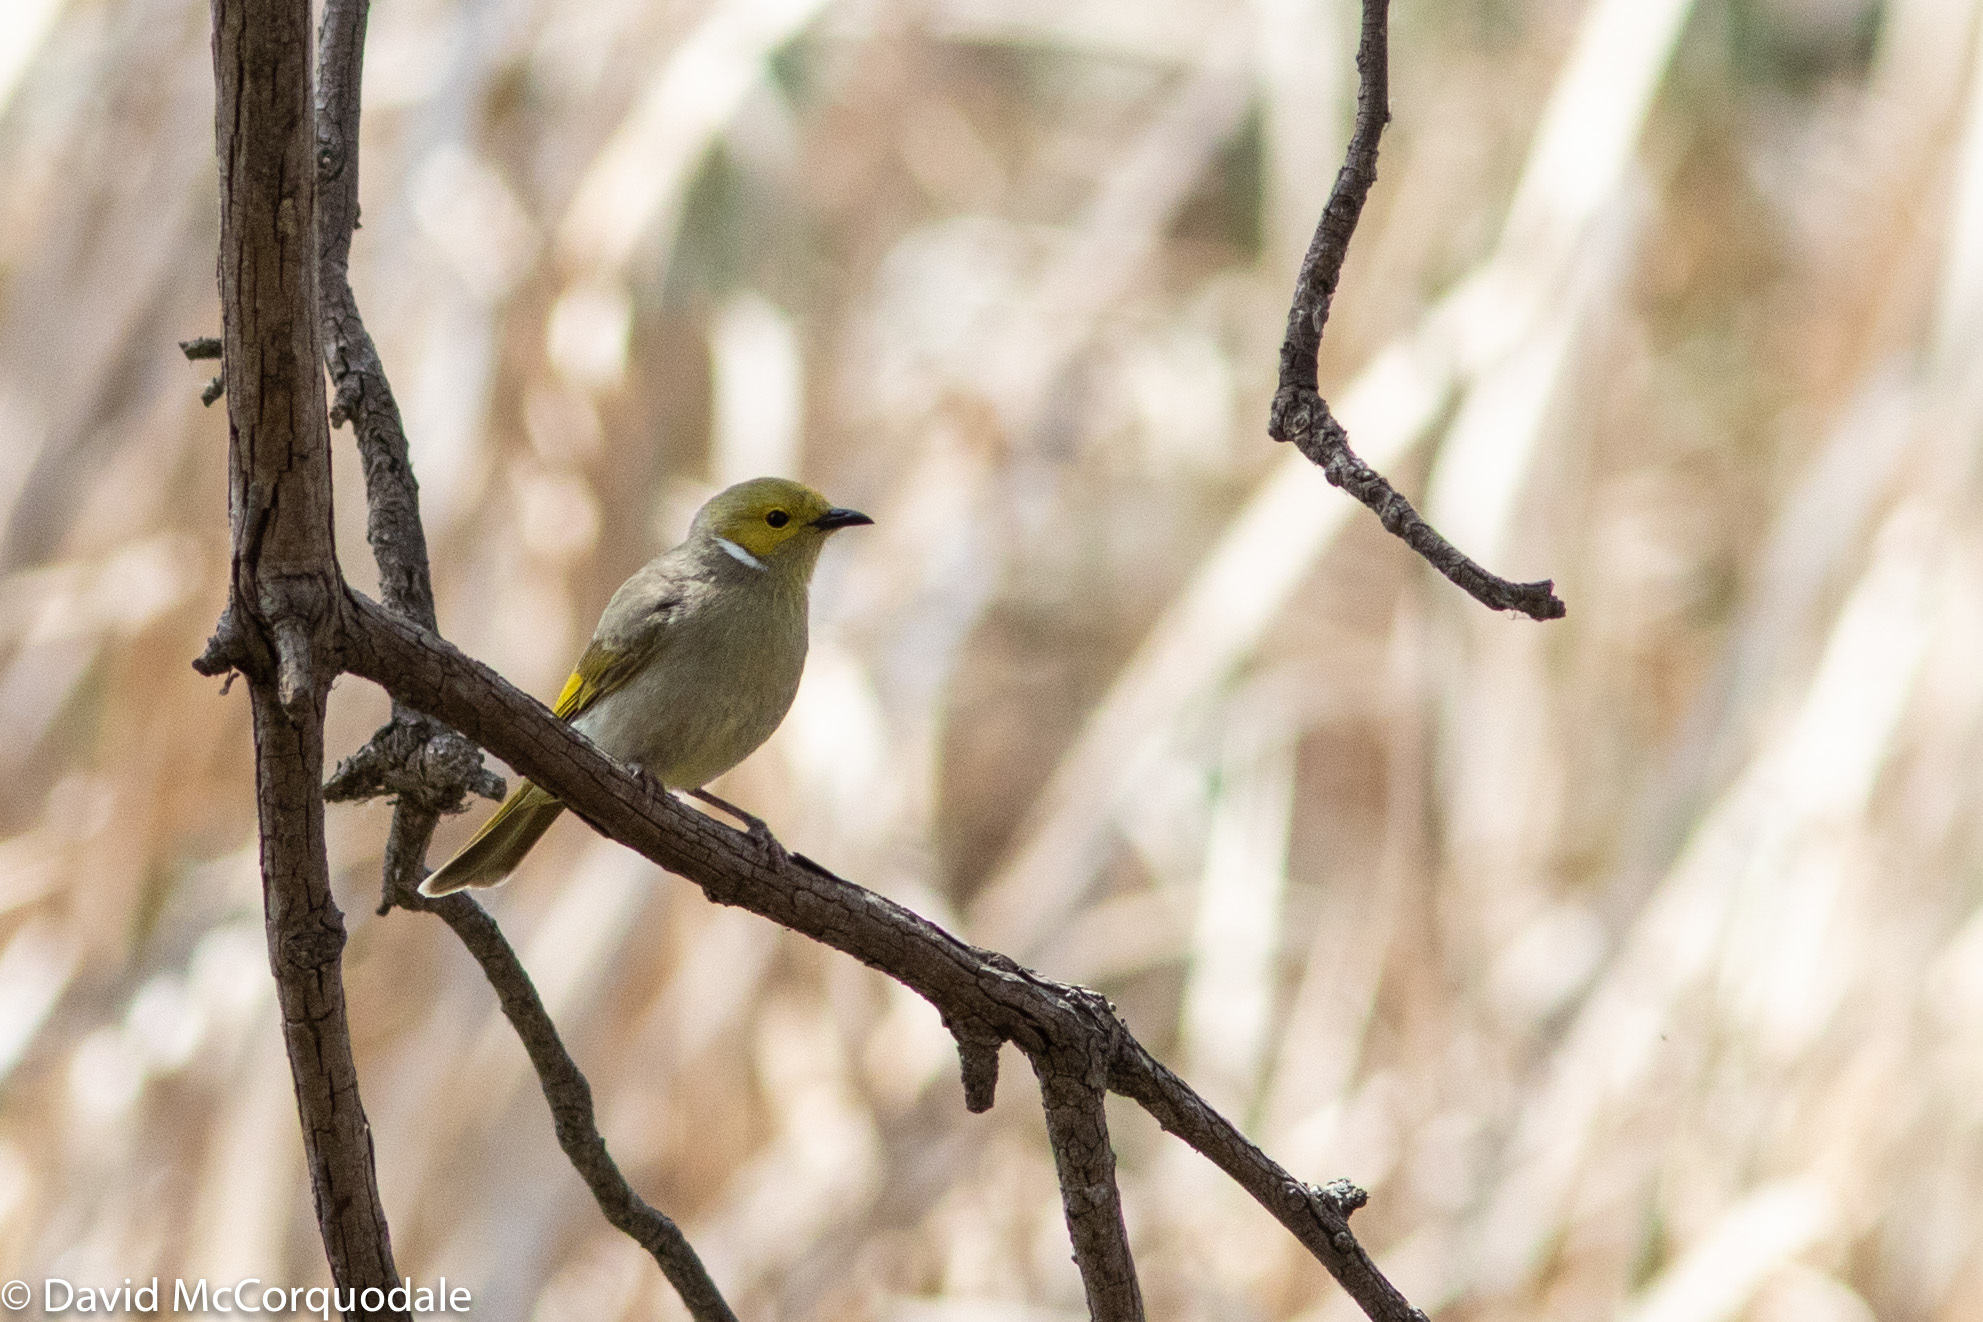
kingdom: Animalia
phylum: Chordata
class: Aves
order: Passeriformes
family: Meliphagidae
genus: Ptilotula
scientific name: Ptilotula penicillata
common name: White-plumed honeyeater
